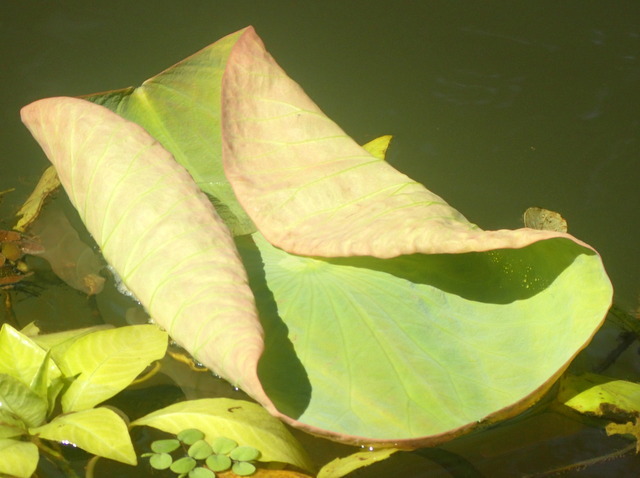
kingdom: Plantae
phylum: Tracheophyta
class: Magnoliopsida
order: Proteales
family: Nelumbonaceae
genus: Nelumbo
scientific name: Nelumbo lutea
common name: American lotus
